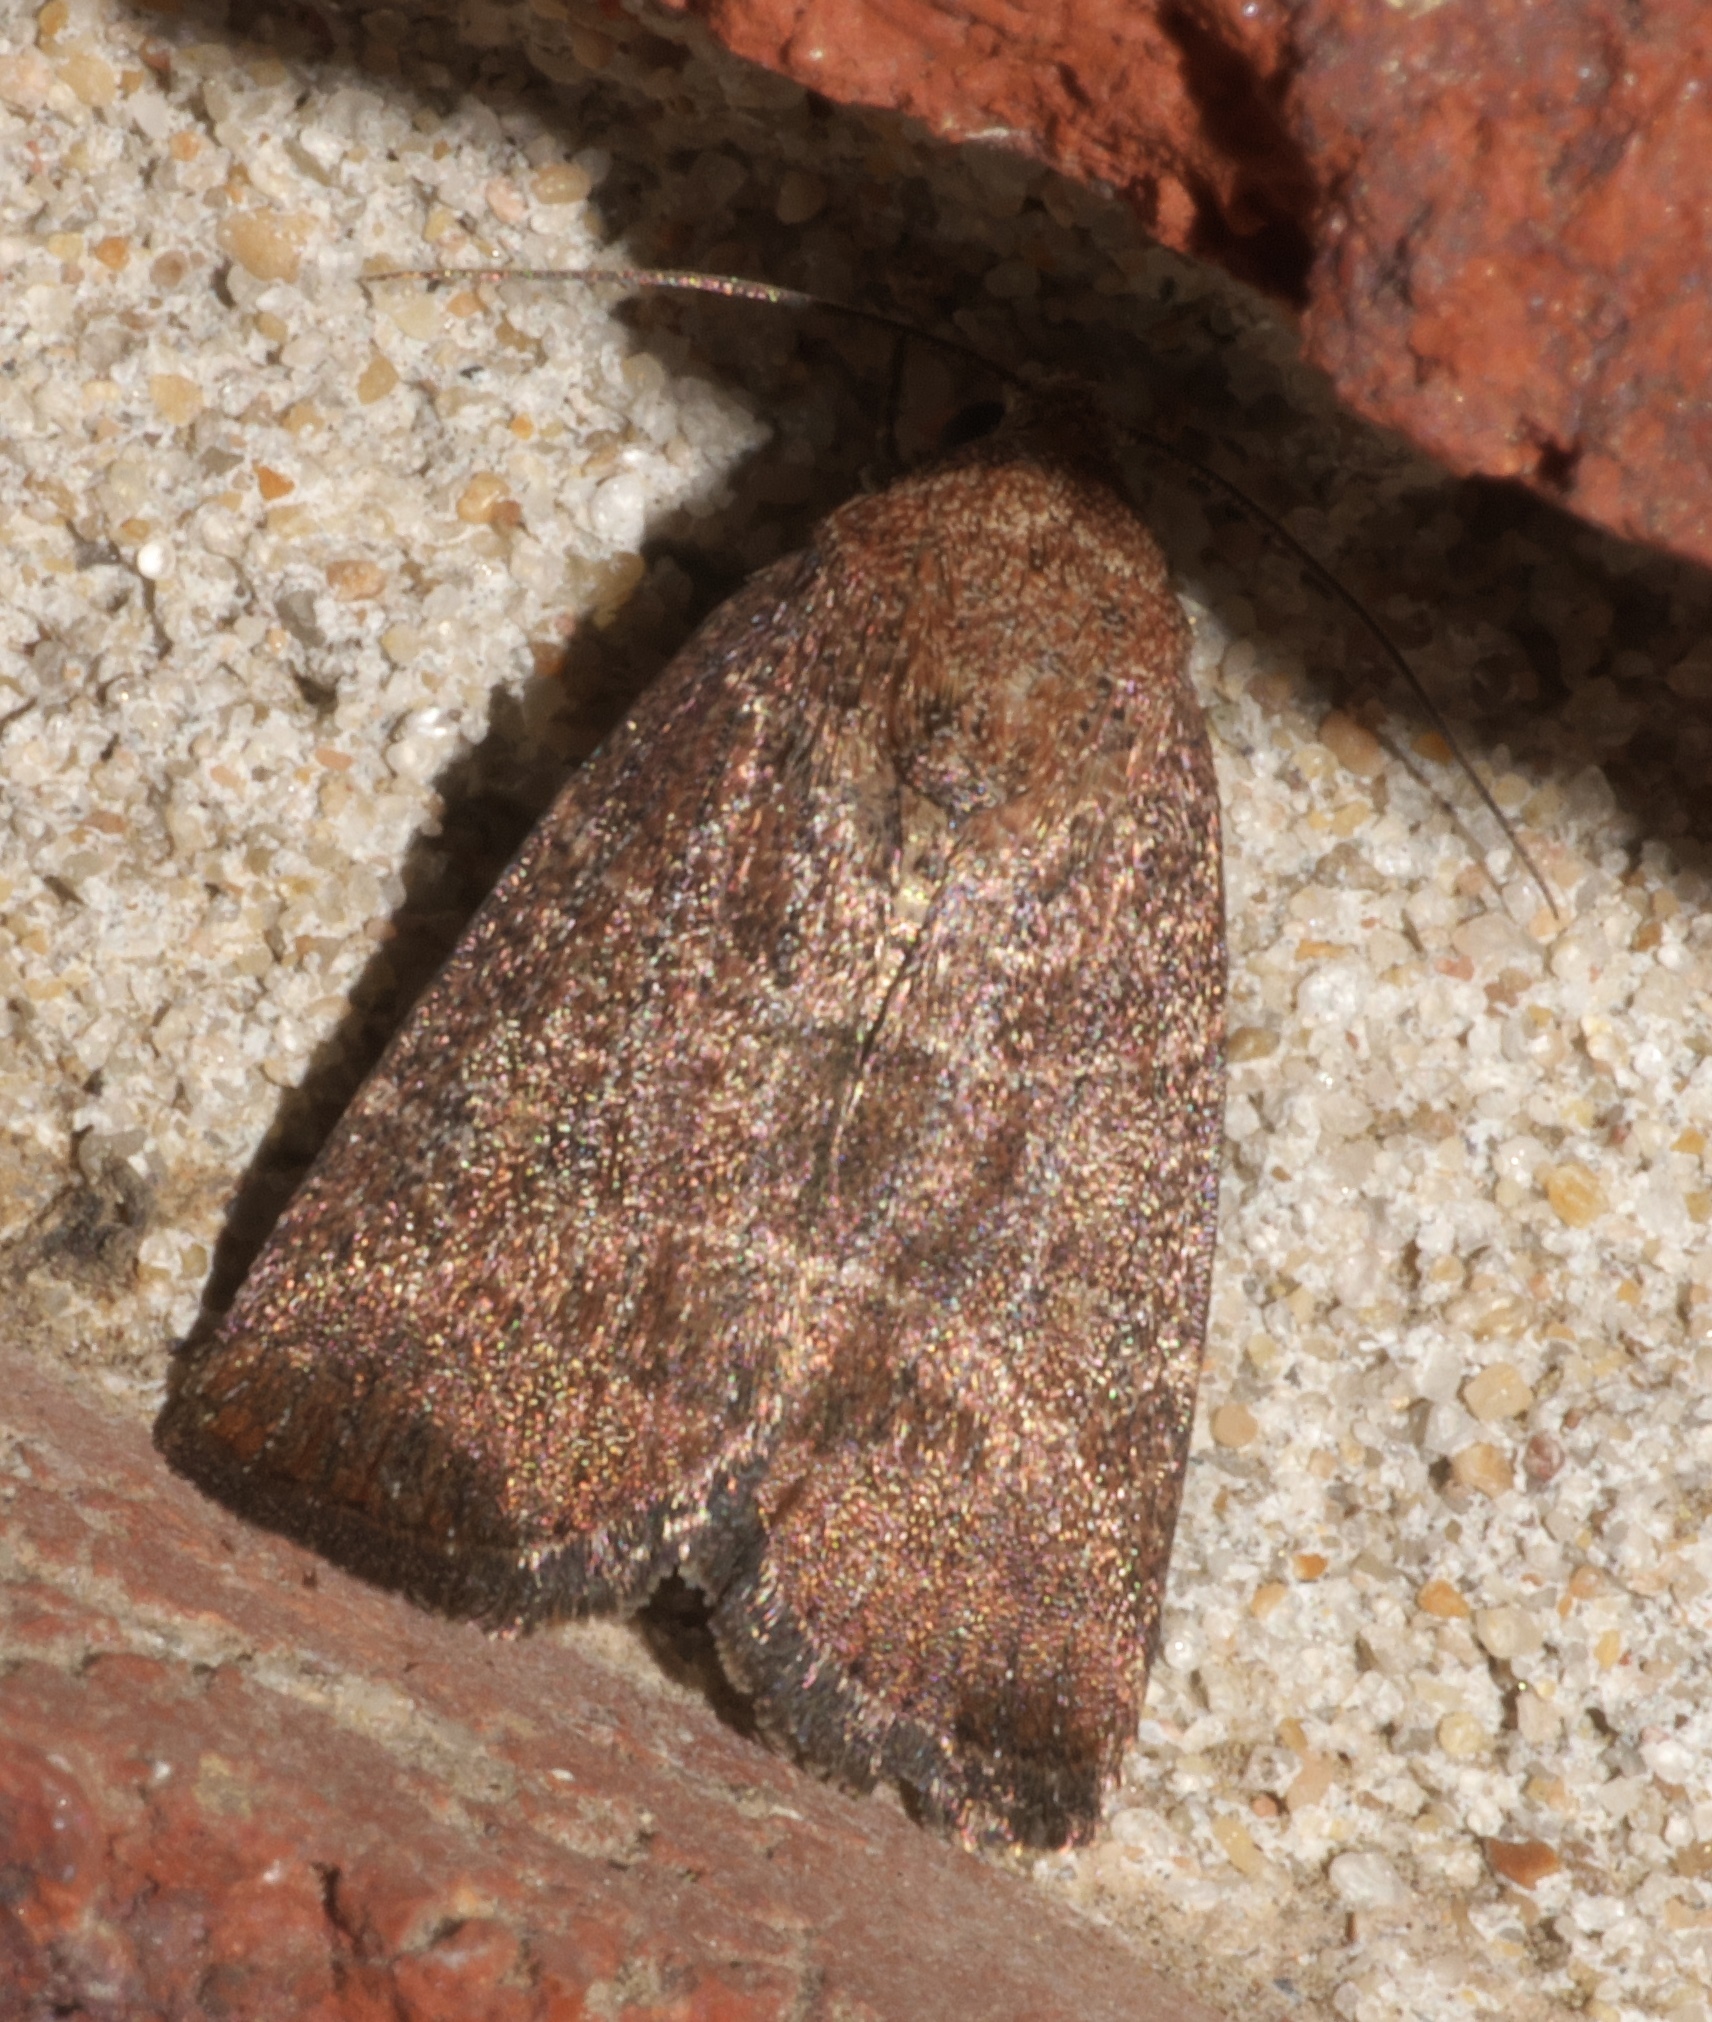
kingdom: Animalia
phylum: Arthropoda
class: Insecta
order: Lepidoptera
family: Noctuidae
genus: Elaphria
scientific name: Elaphria grata
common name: Grateful midget moth
